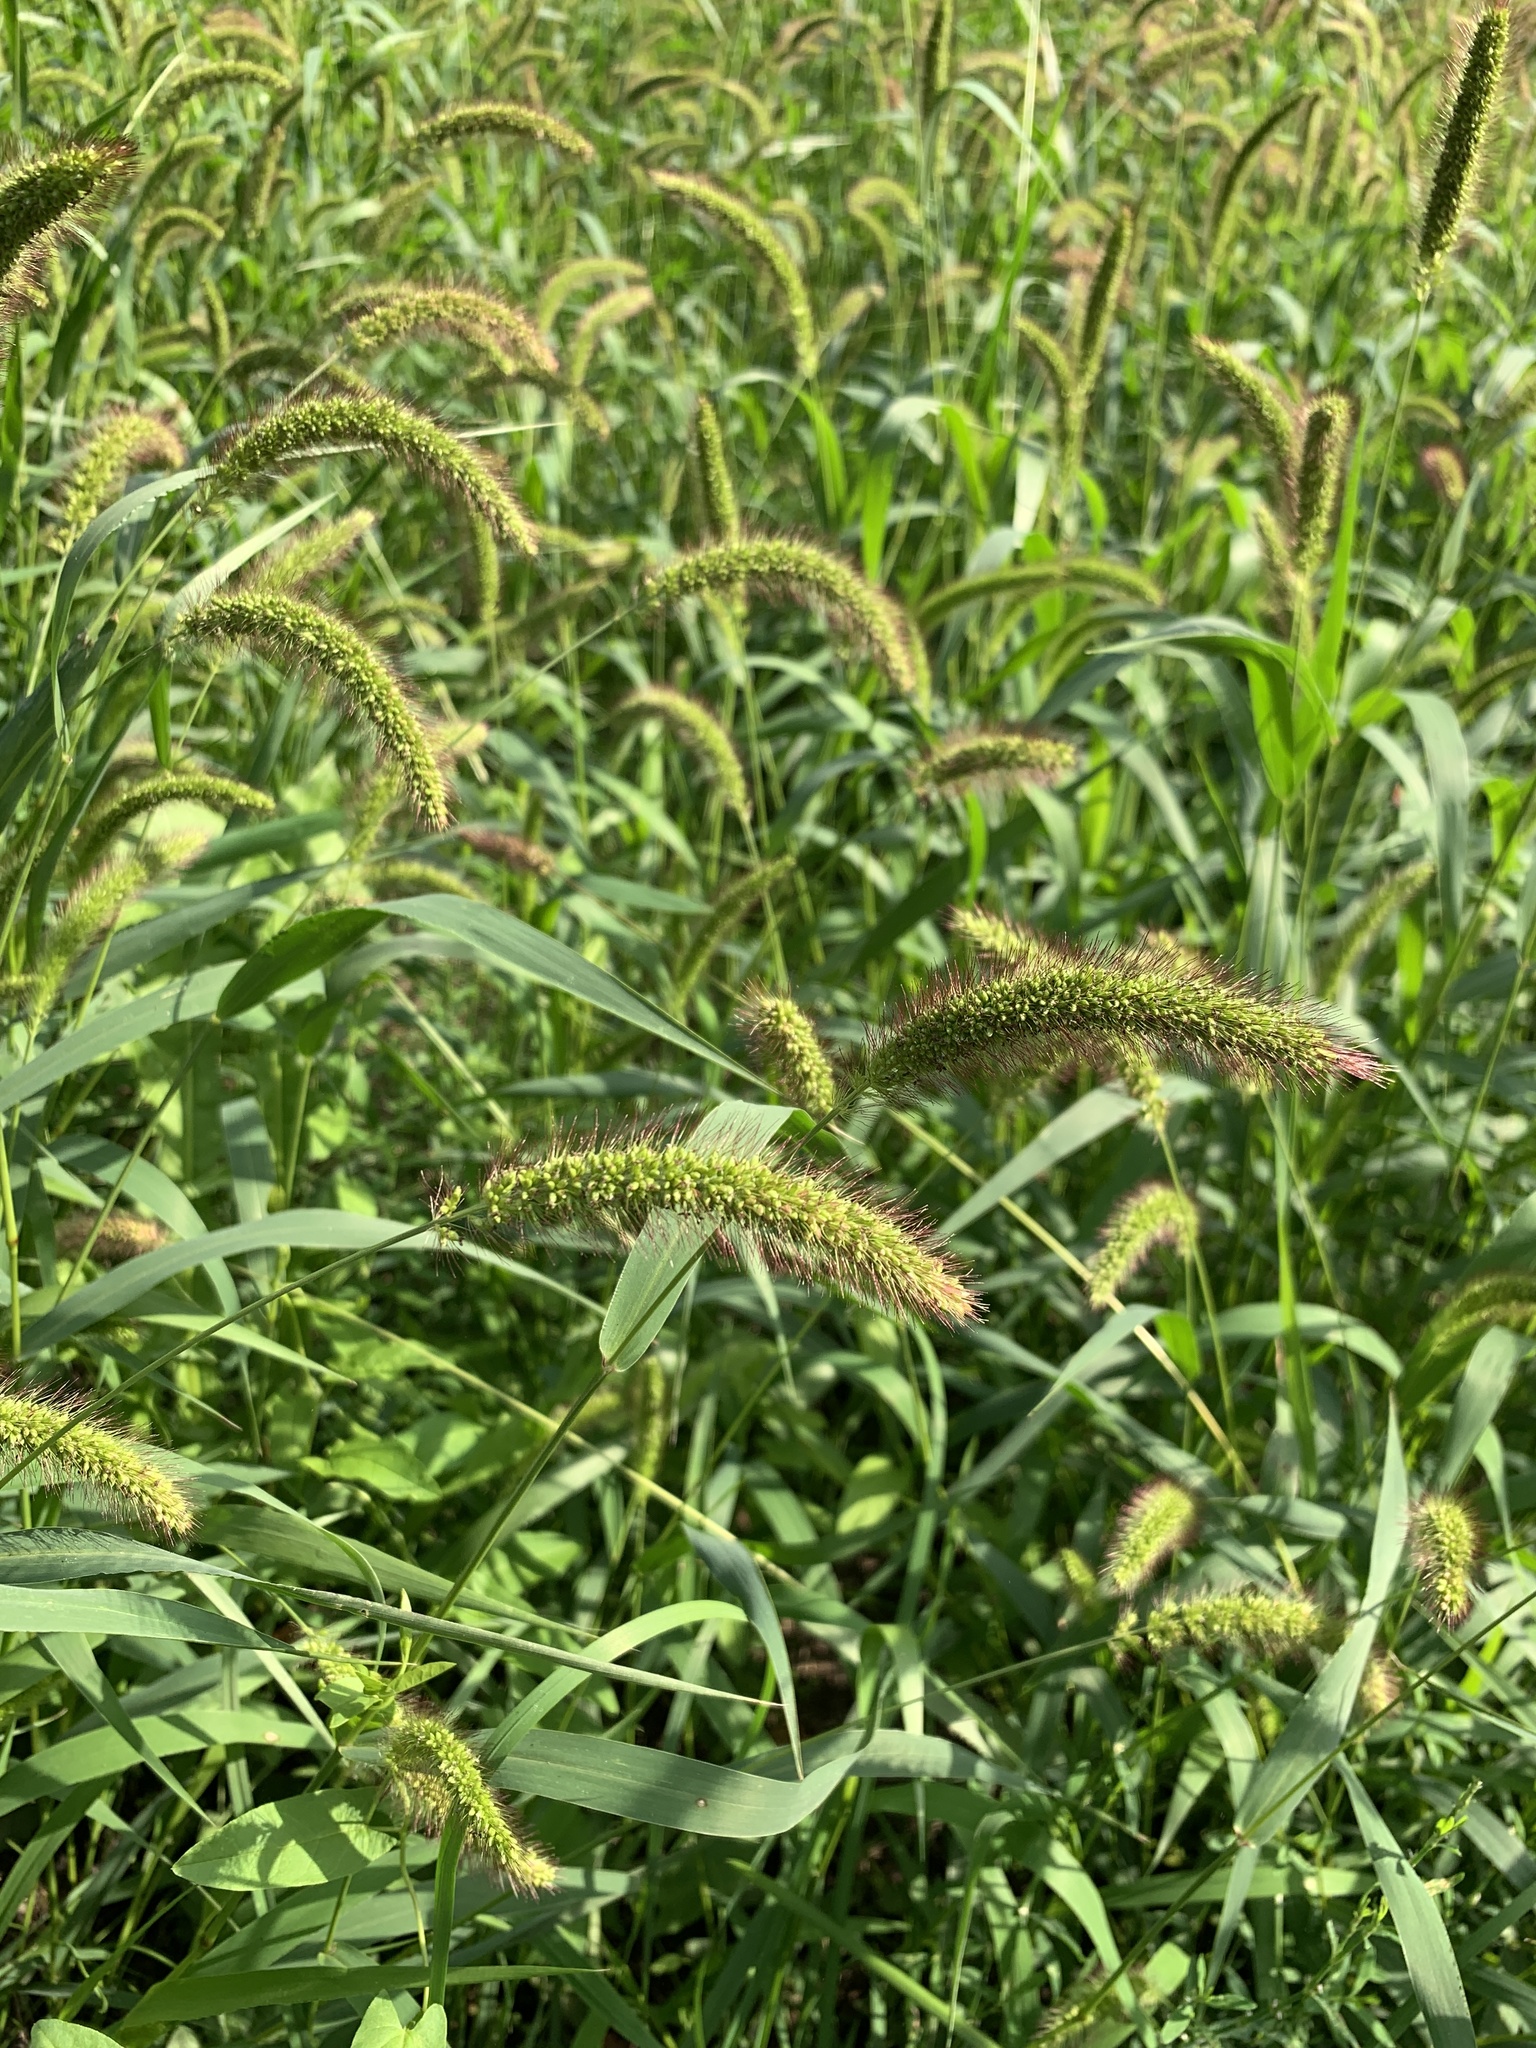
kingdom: Plantae
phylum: Tracheophyta
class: Liliopsida
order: Poales
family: Poaceae
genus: Setaria
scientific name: Setaria viridis
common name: Green bristlegrass
